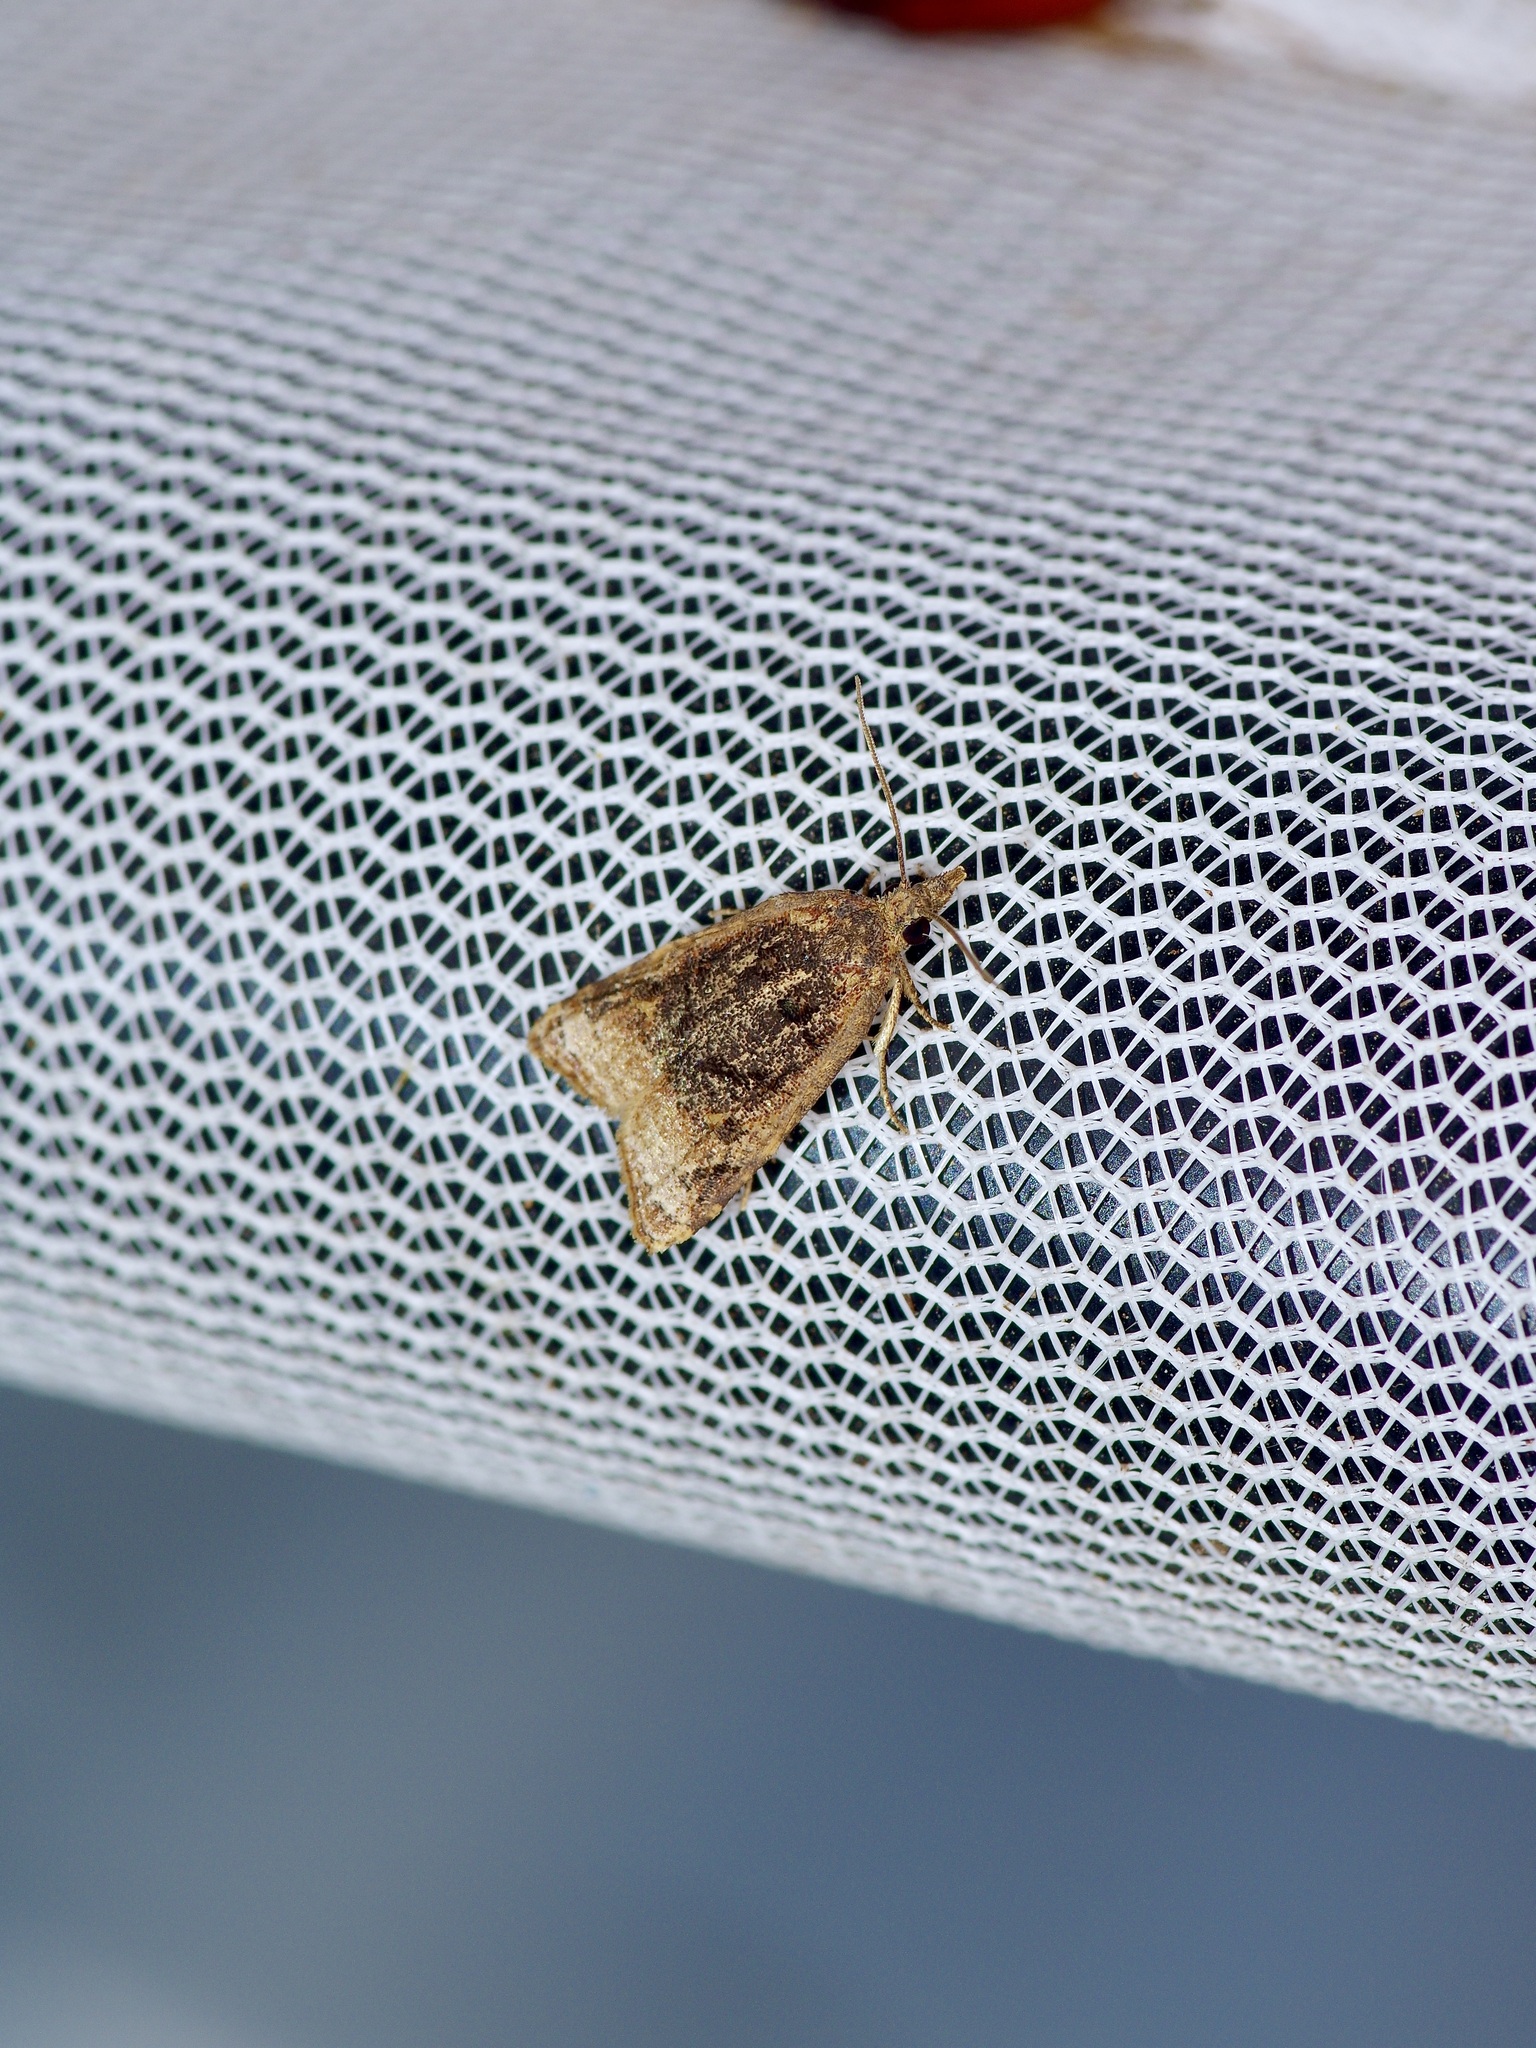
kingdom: Animalia
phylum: Arthropoda
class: Insecta
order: Lepidoptera
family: Tortricidae
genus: Platynota
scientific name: Platynota flavedana
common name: Black-shaded platynota moth
